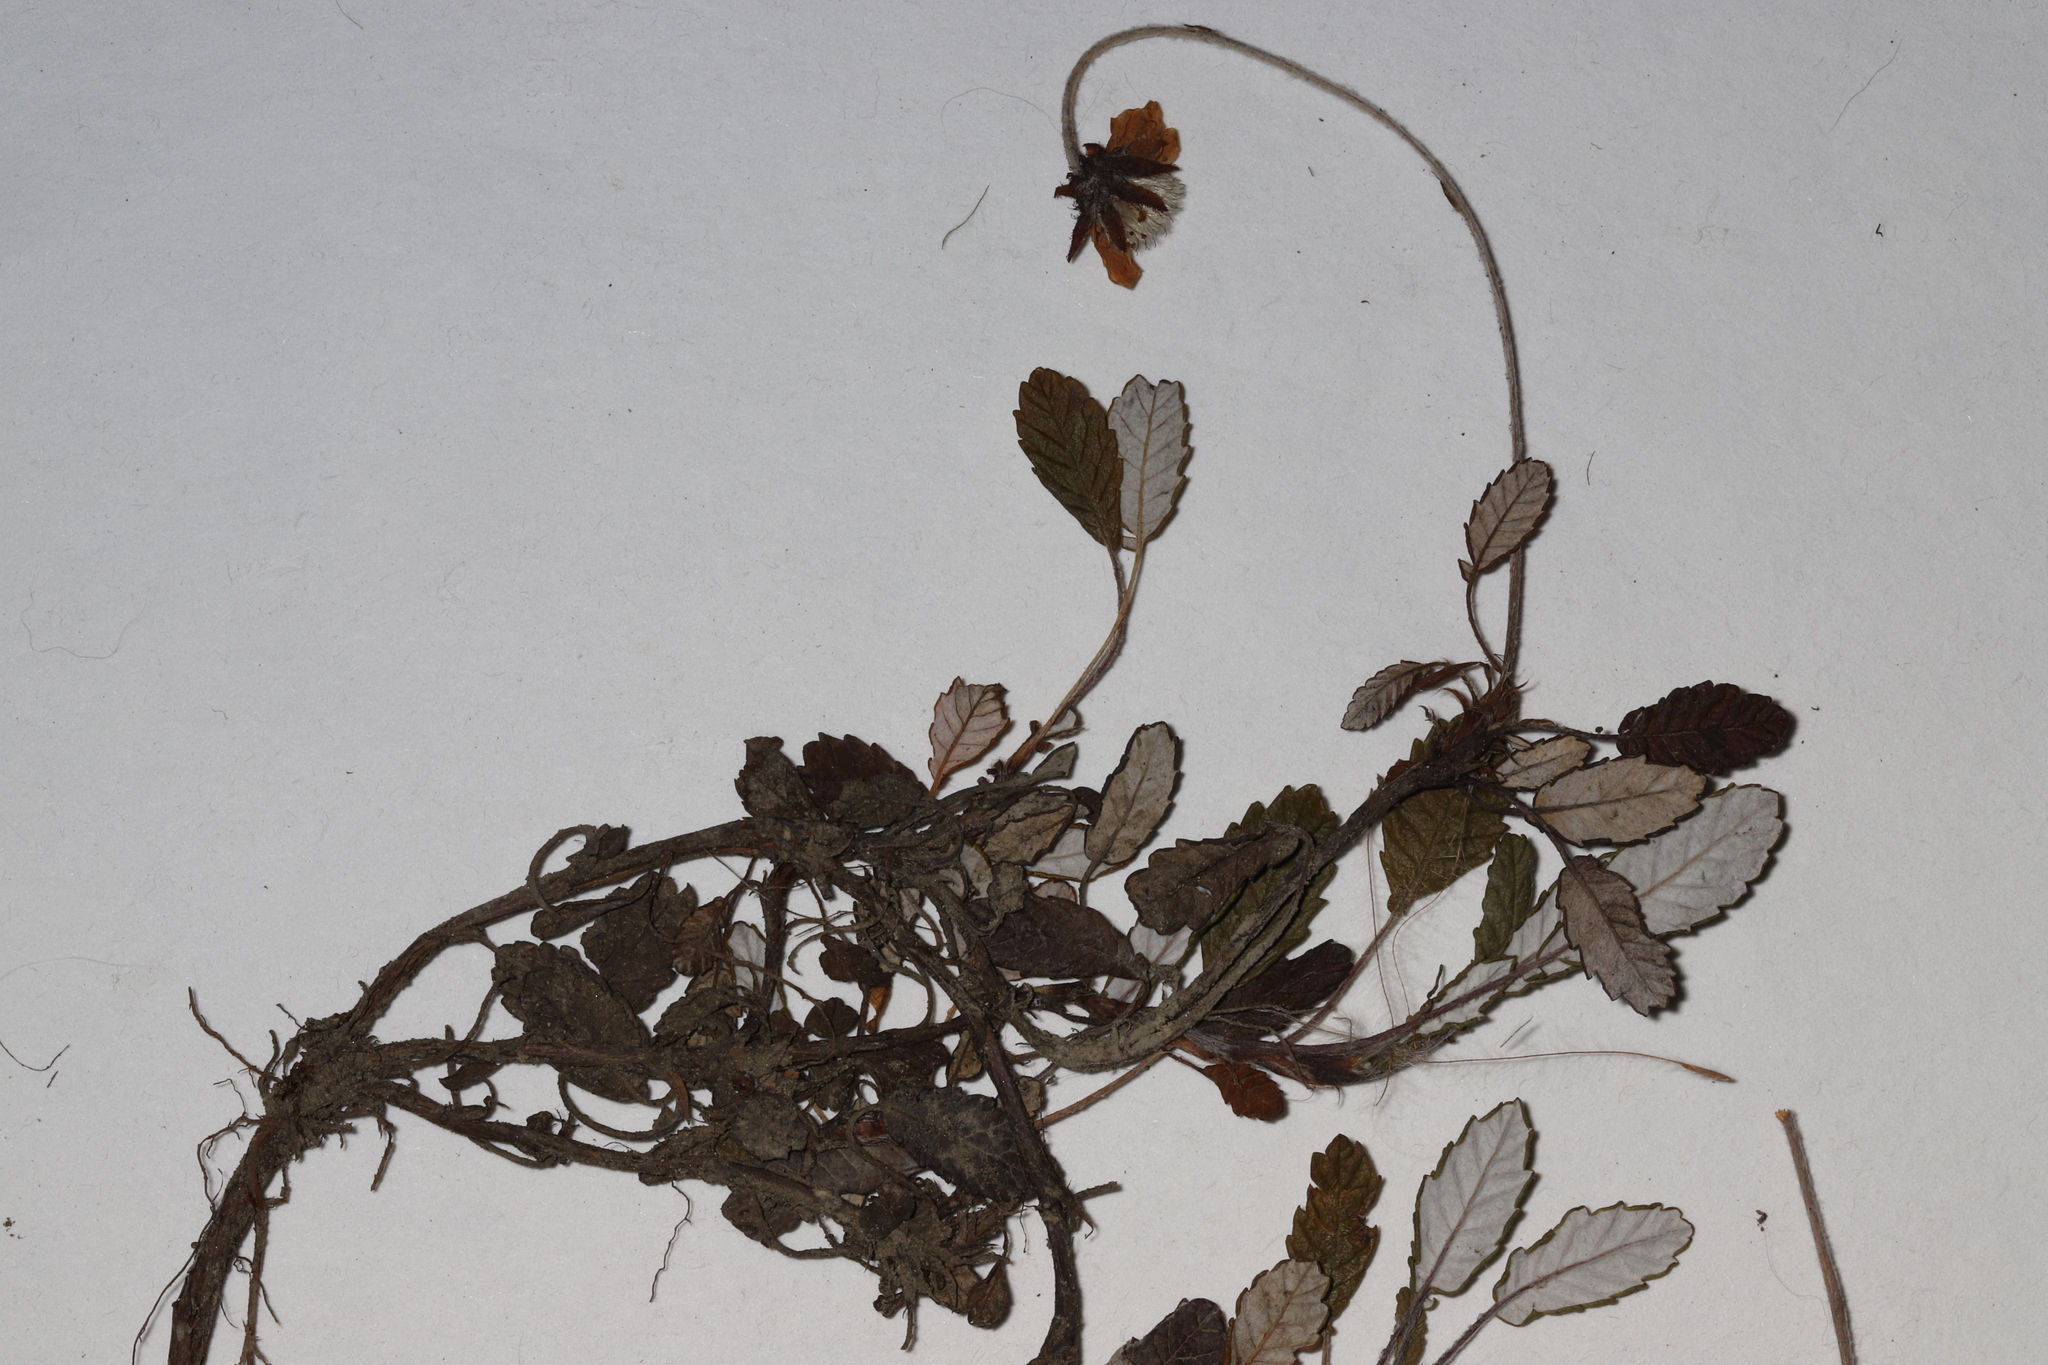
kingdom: Plantae
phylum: Tracheophyta
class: Magnoliopsida
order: Rosales
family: Rosaceae
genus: Dryas
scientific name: Dryas drummondii
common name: Drummond's dryad
